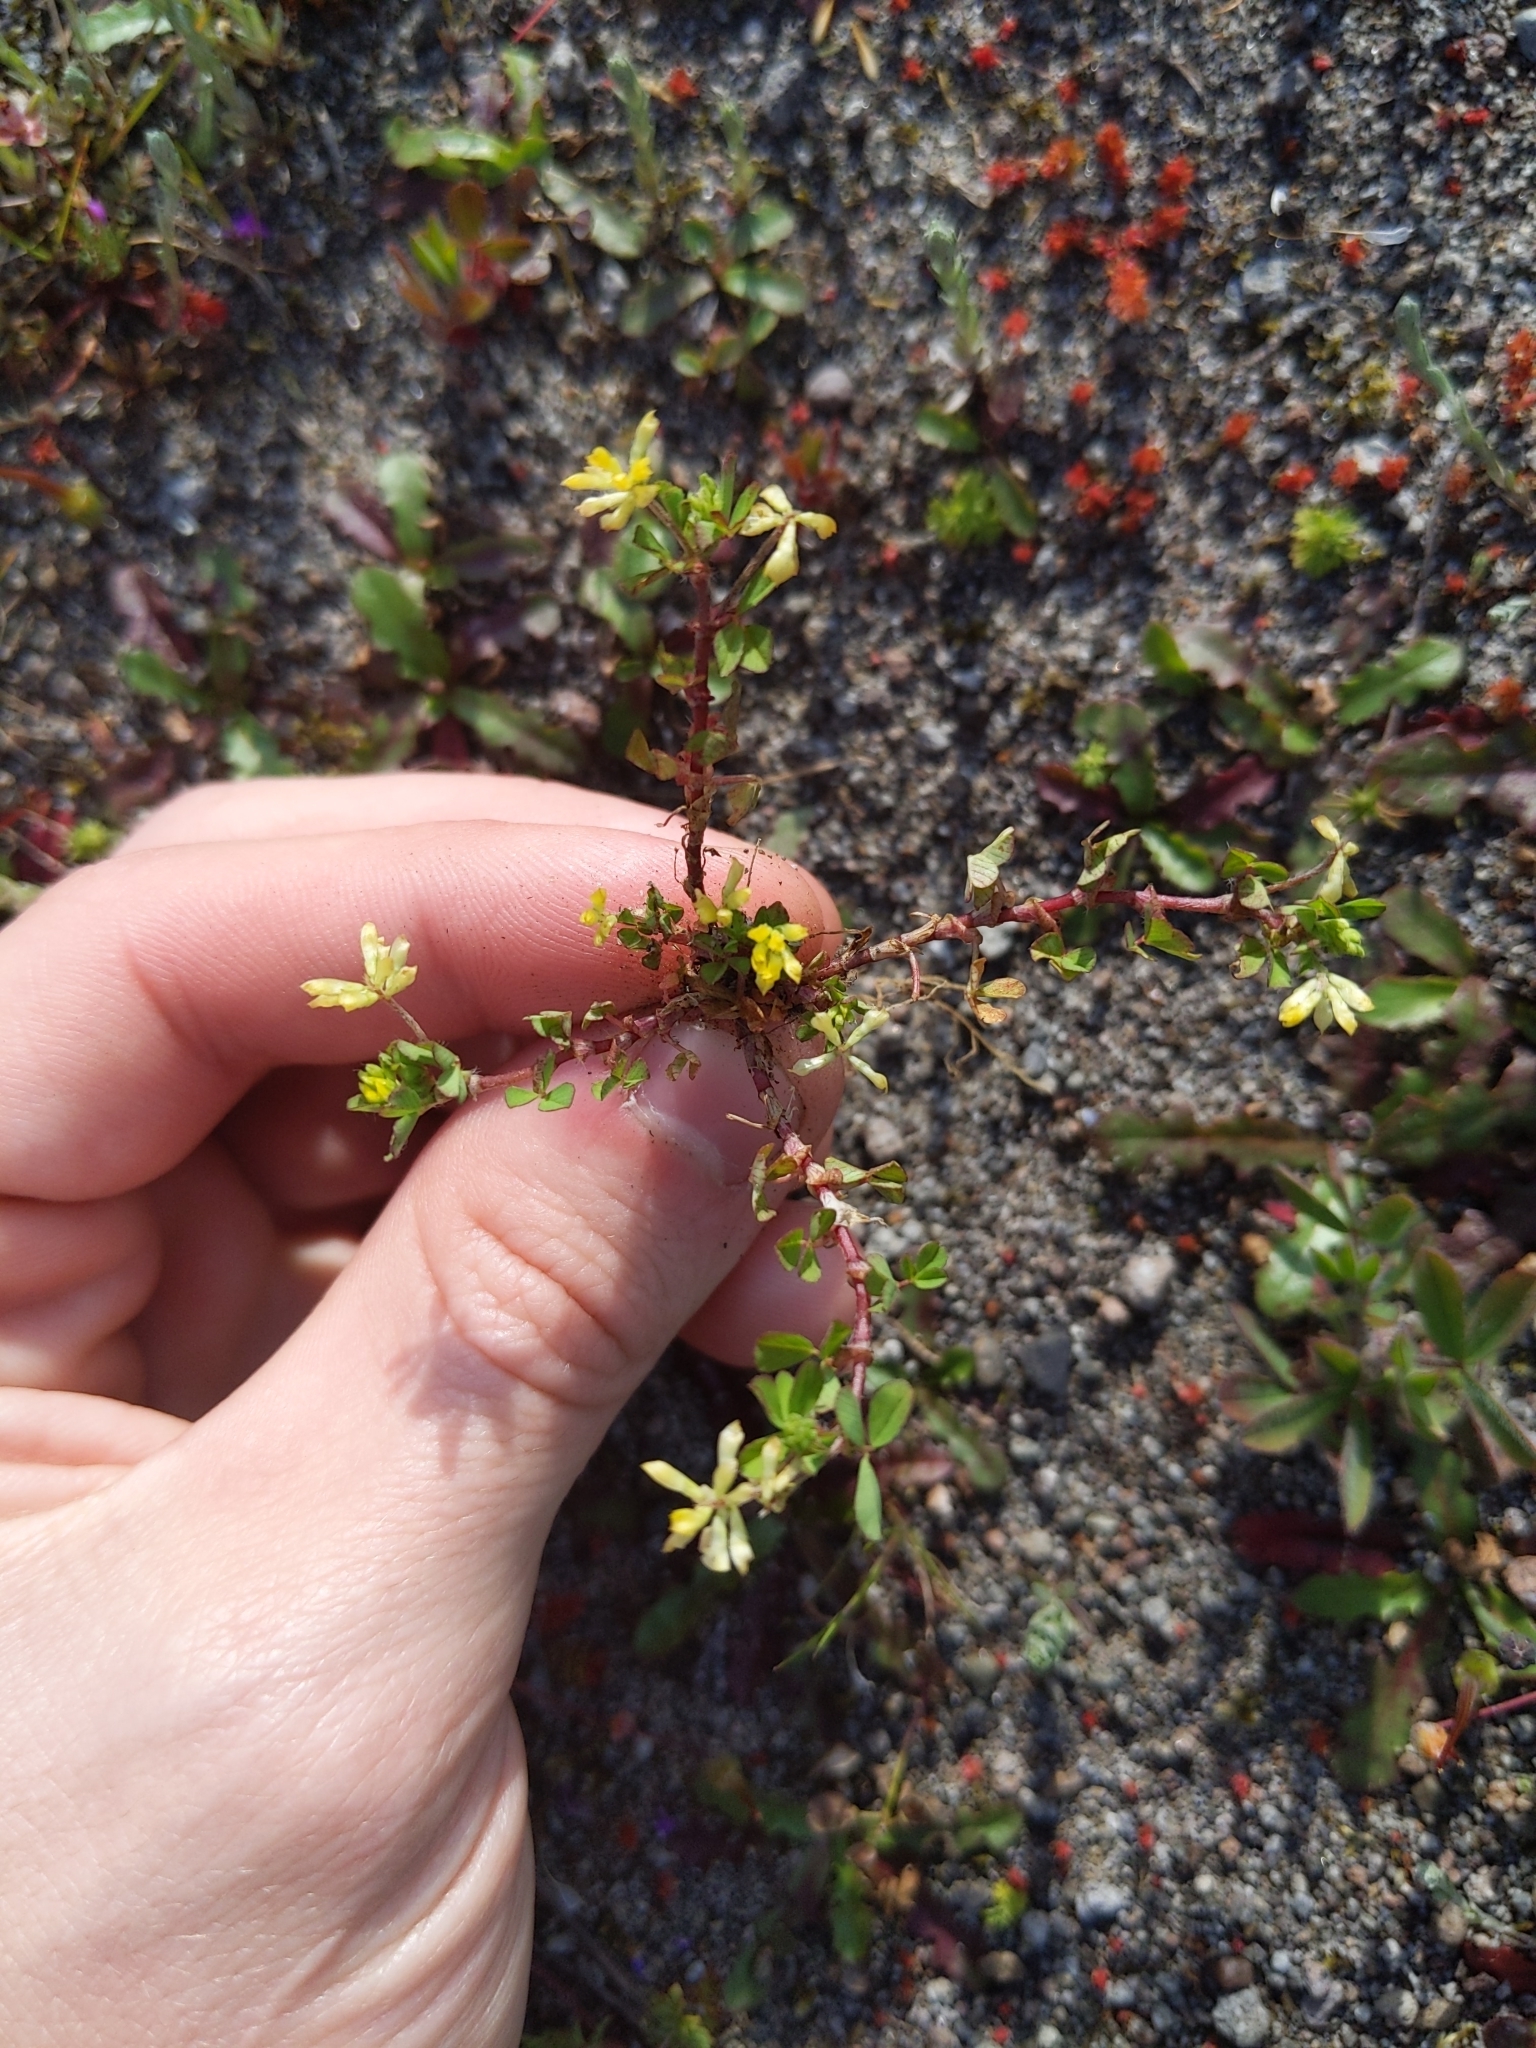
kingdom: Plantae
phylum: Tracheophyta
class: Magnoliopsida
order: Fabales
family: Fabaceae
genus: Trifolium
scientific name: Trifolium dubium
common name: Suckling clover
